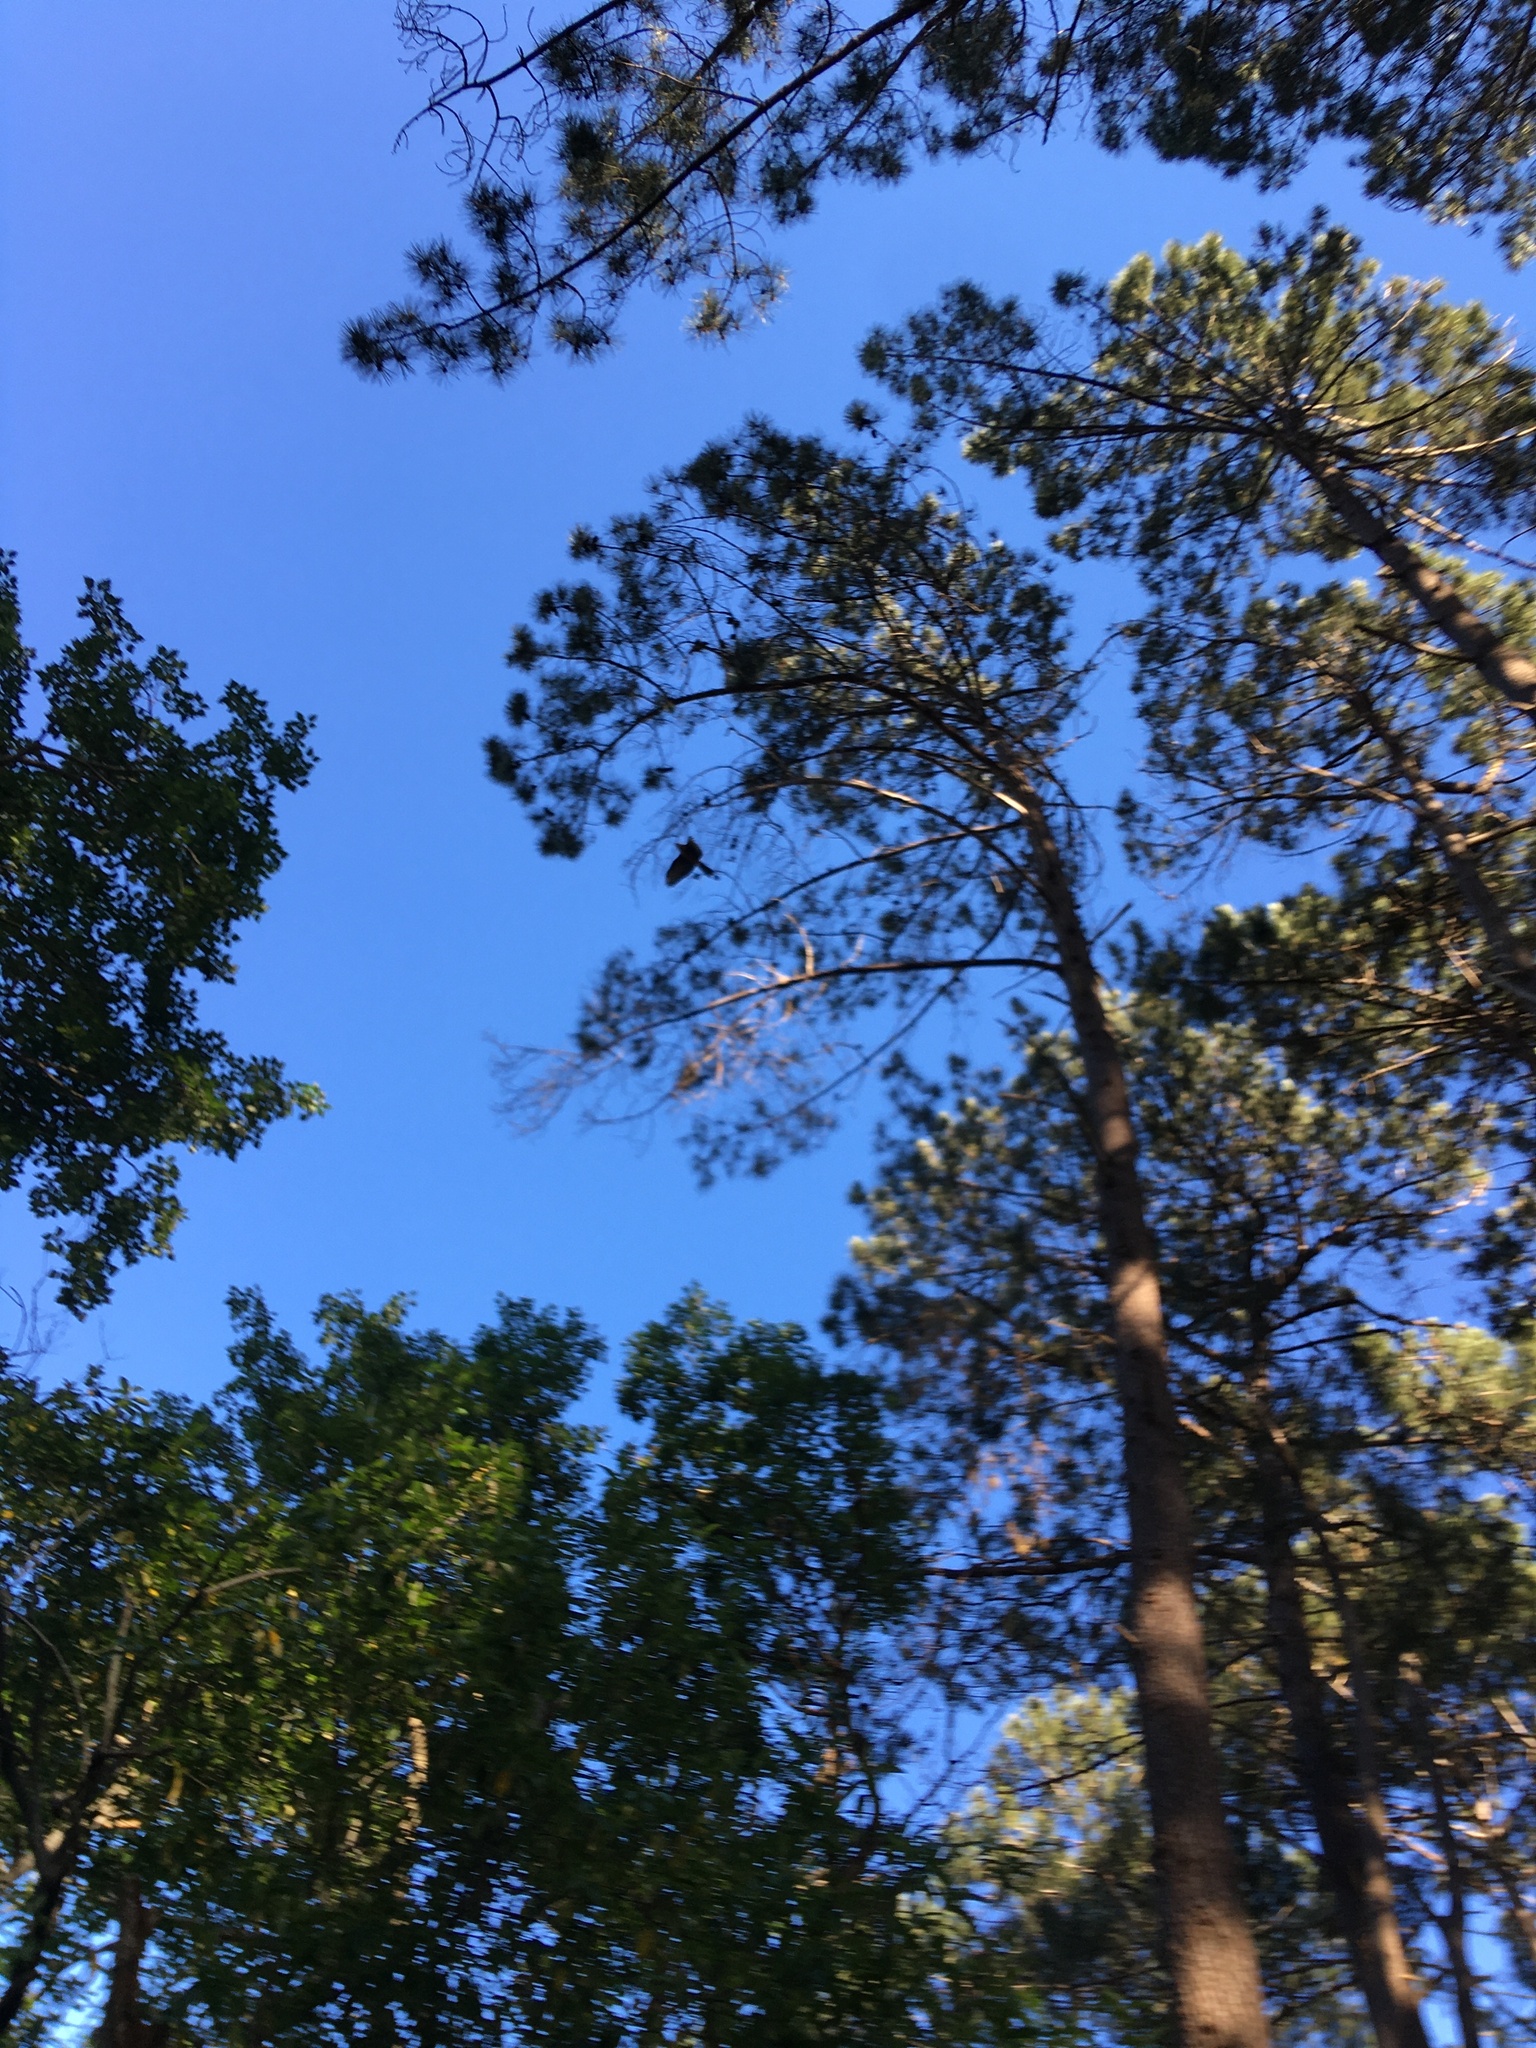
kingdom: Animalia
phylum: Chordata
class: Aves
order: Accipitriformes
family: Accipitridae
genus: Buteo
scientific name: Buteo buteo
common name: Common buzzard
